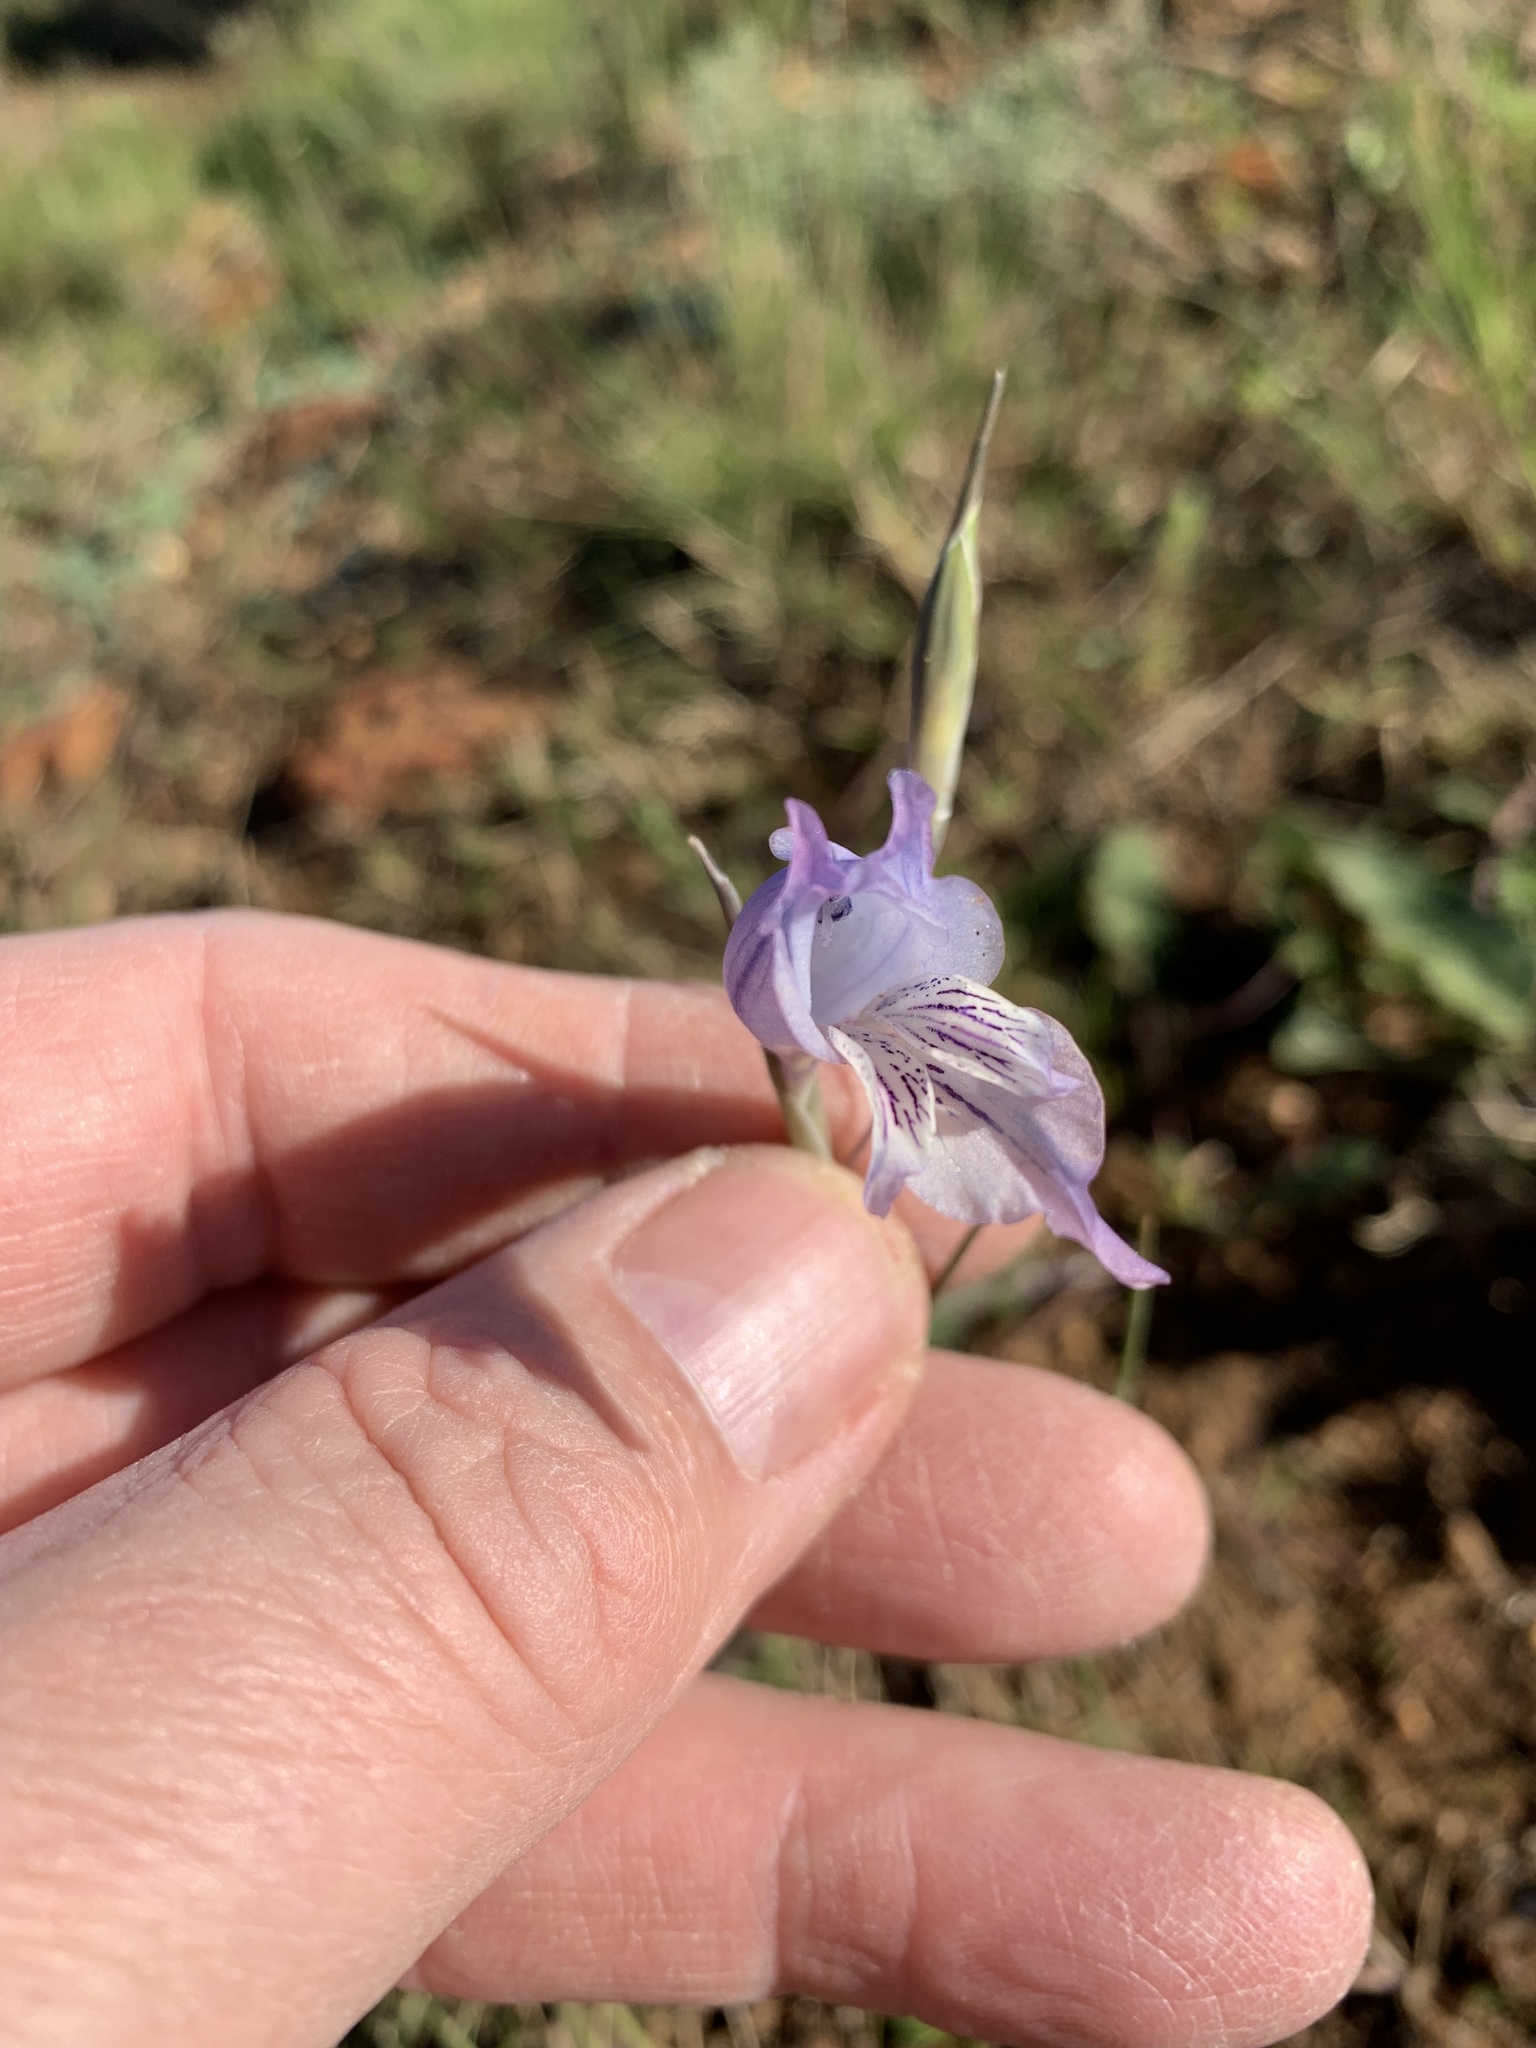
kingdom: Plantae
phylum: Tracheophyta
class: Liliopsida
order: Asparagales
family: Iridaceae
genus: Gladiolus
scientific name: Gladiolus gracilis
